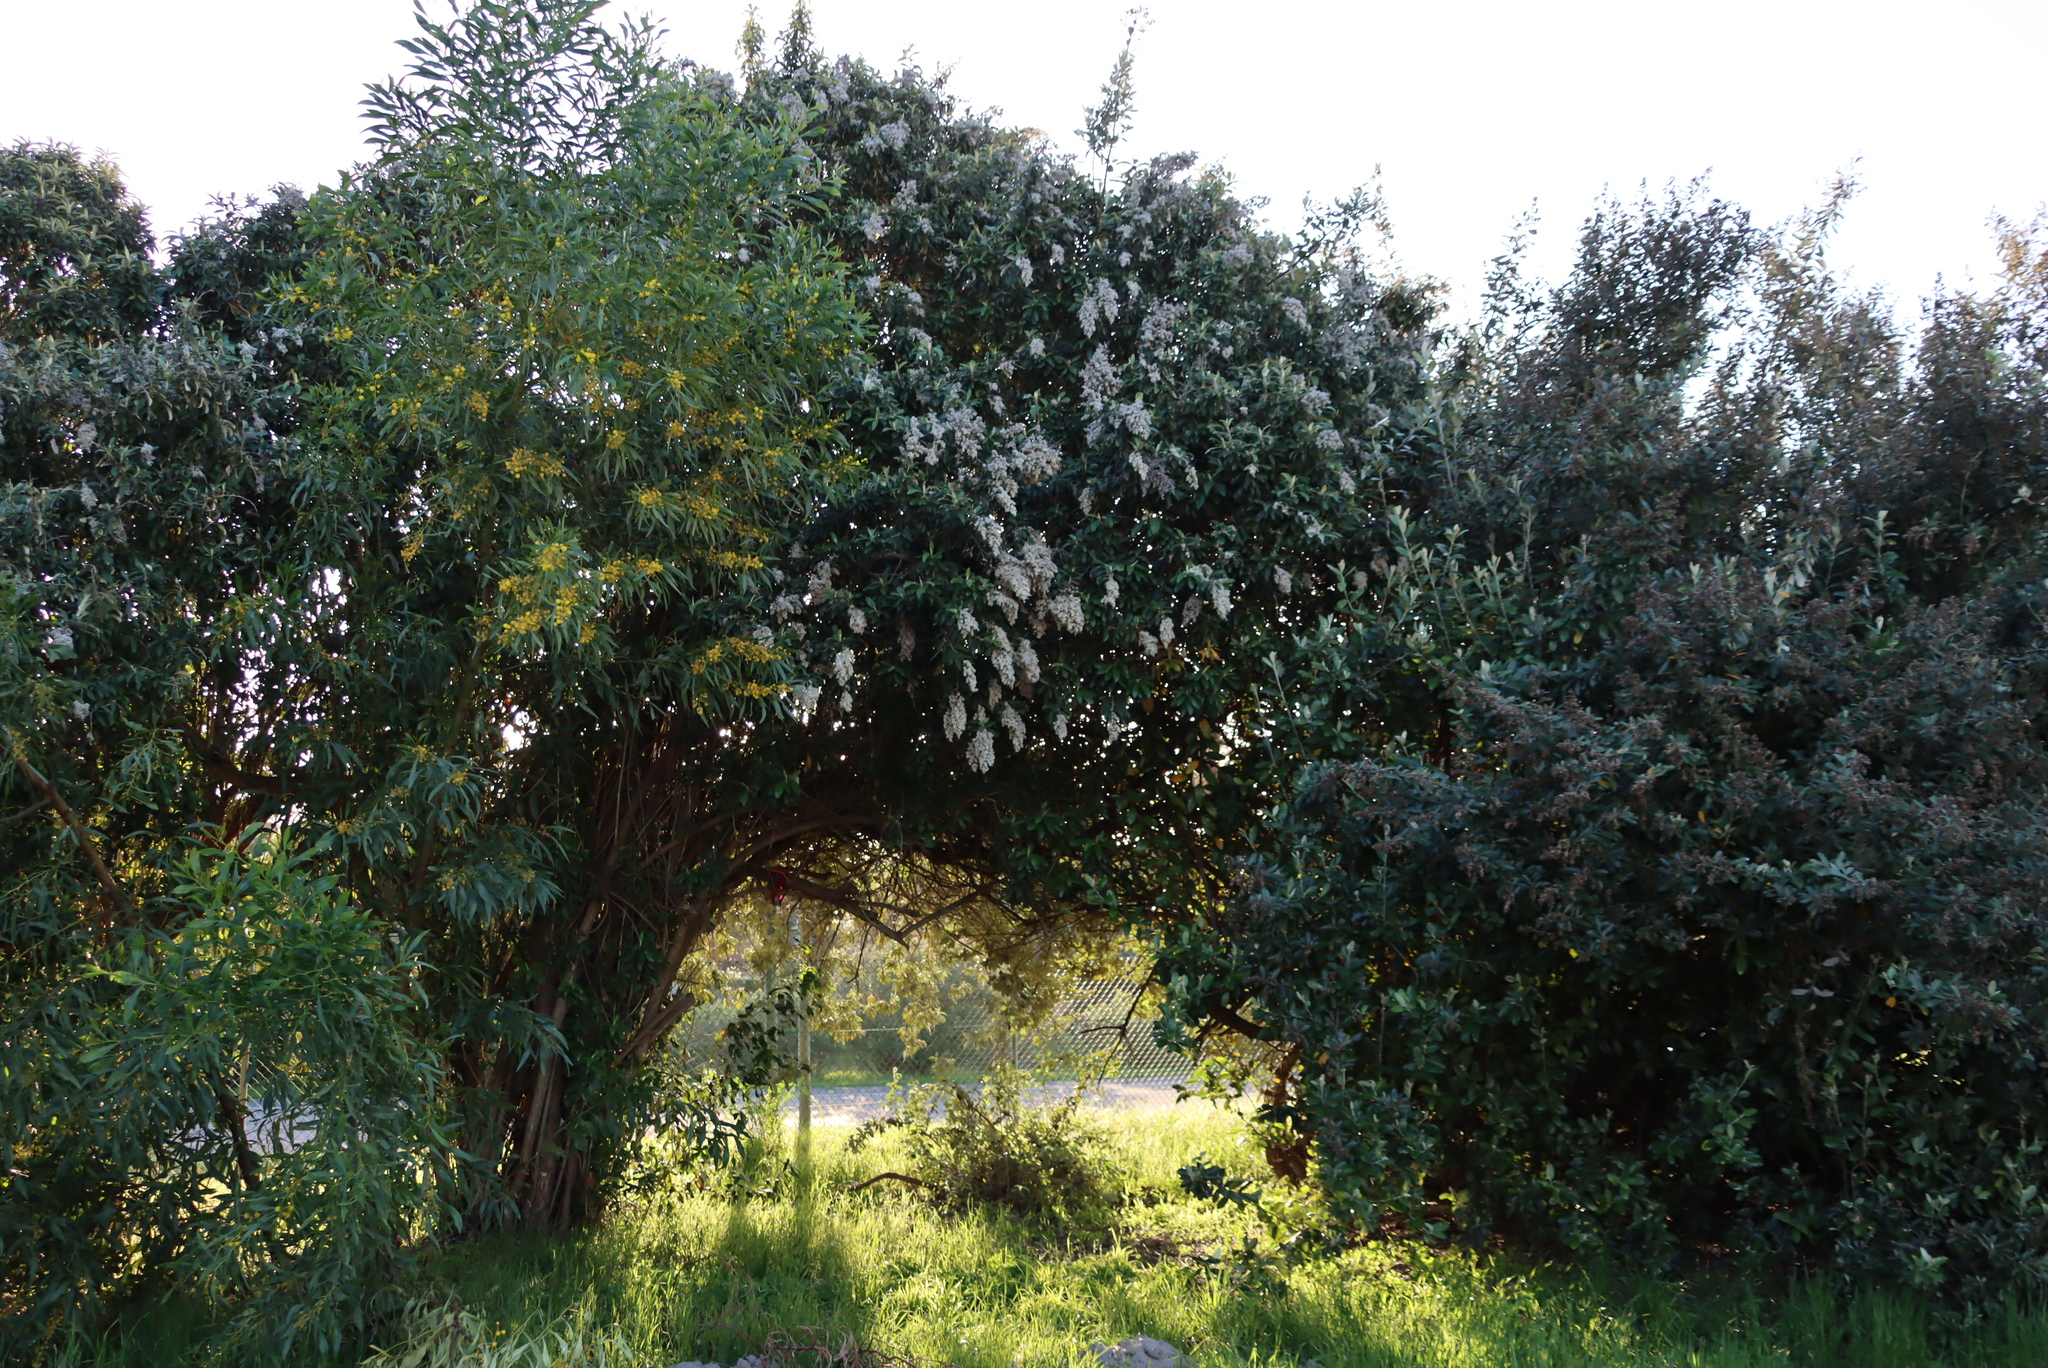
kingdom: Plantae
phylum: Tracheophyta
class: Magnoliopsida
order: Asterales
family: Asteraceae
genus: Tarchonanthus
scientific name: Tarchonanthus littoralis
